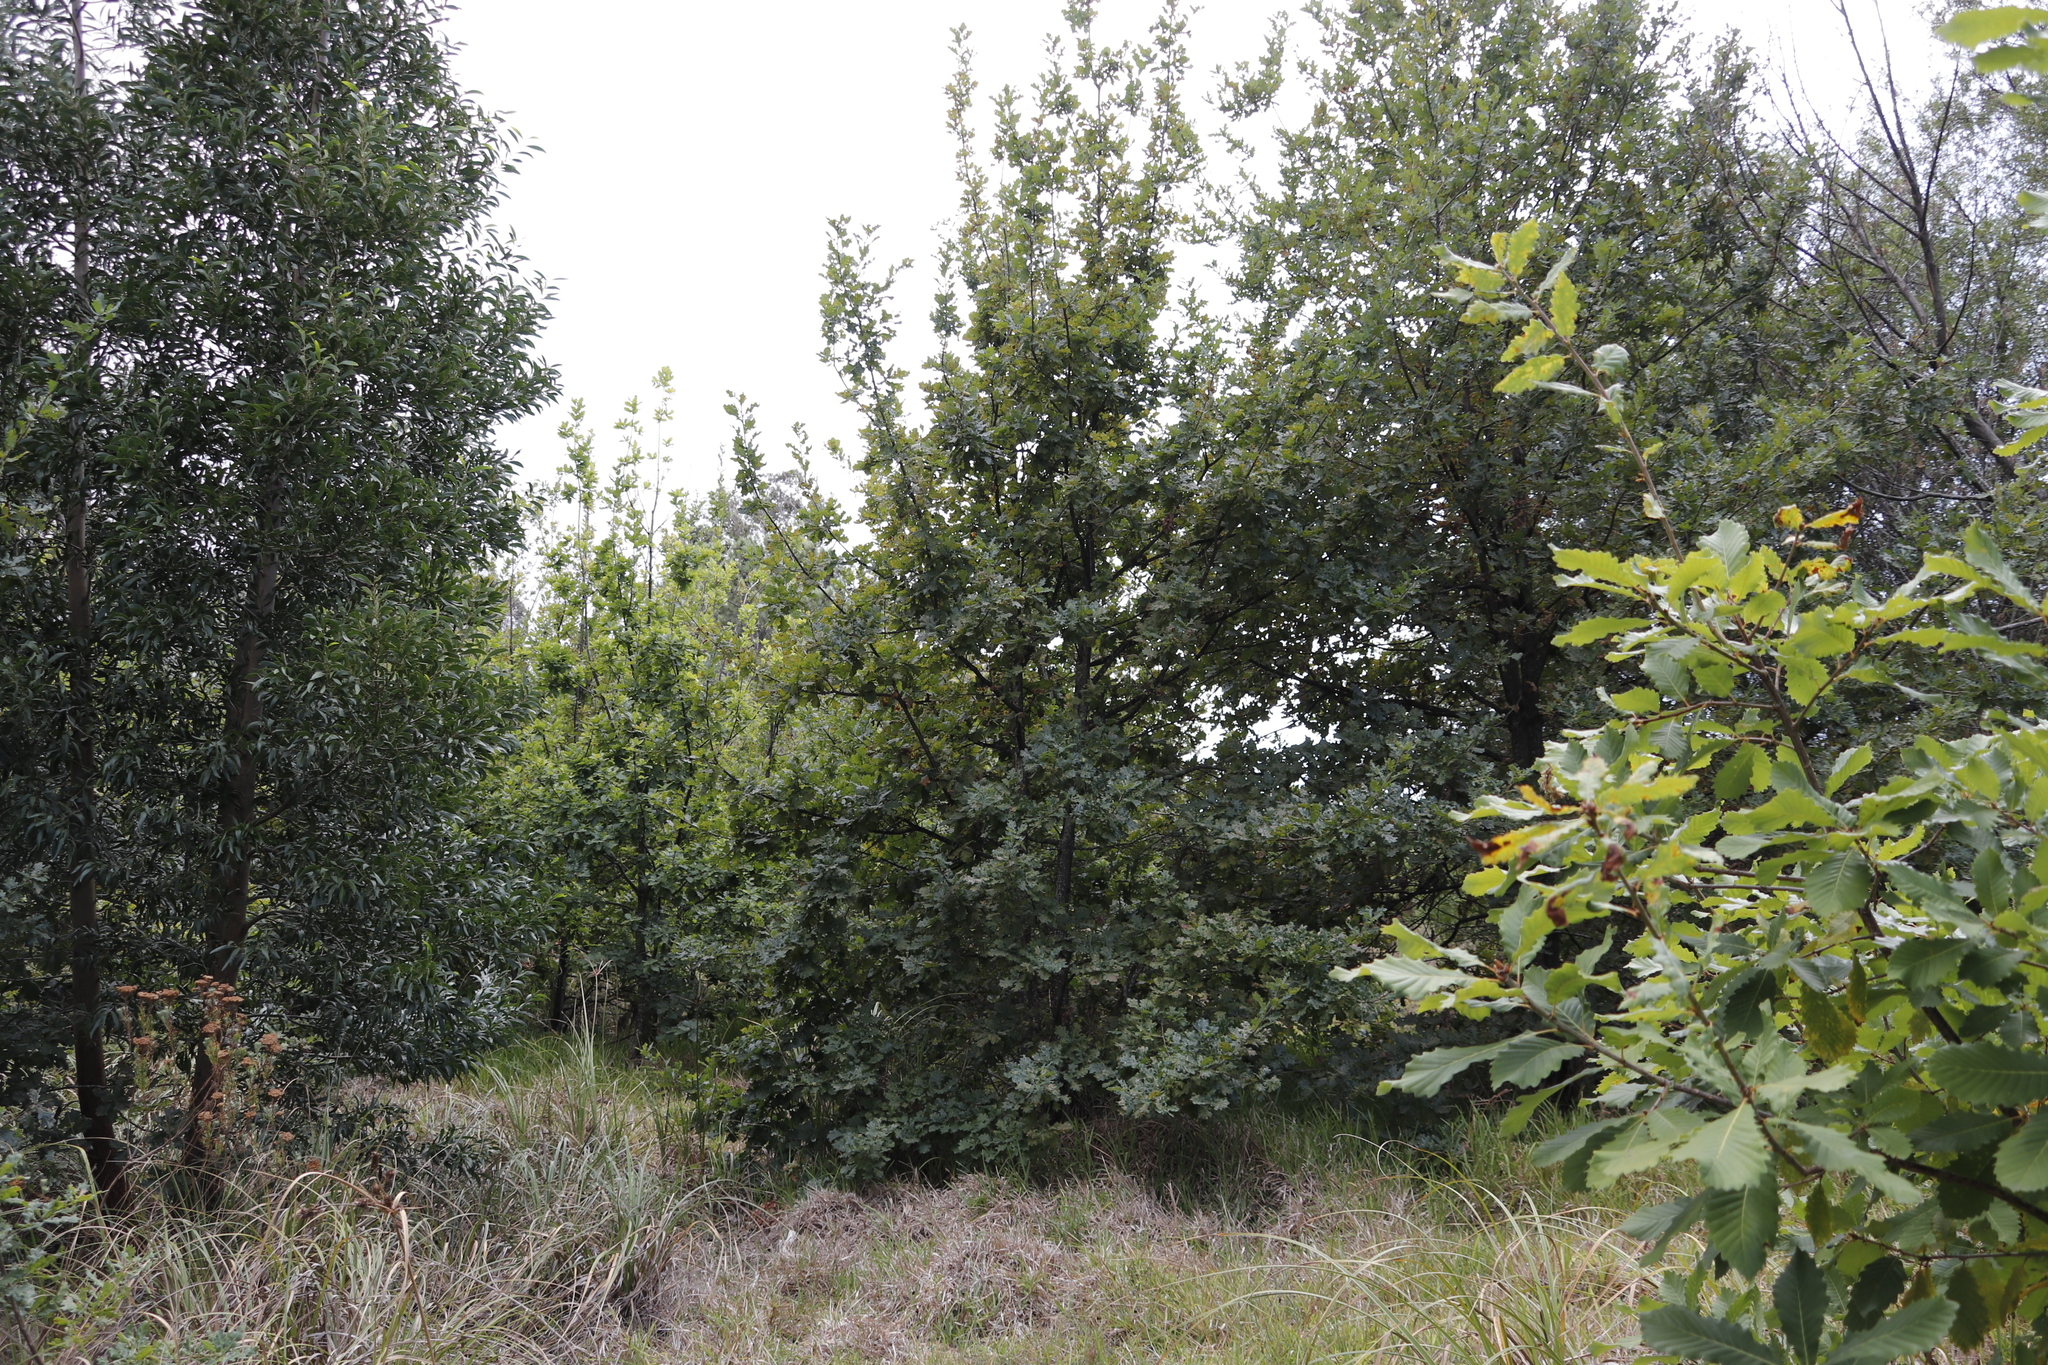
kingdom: Plantae
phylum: Tracheophyta
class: Magnoliopsida
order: Fagales
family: Fagaceae
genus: Quercus
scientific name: Quercus canariensis
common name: Algerian oak
